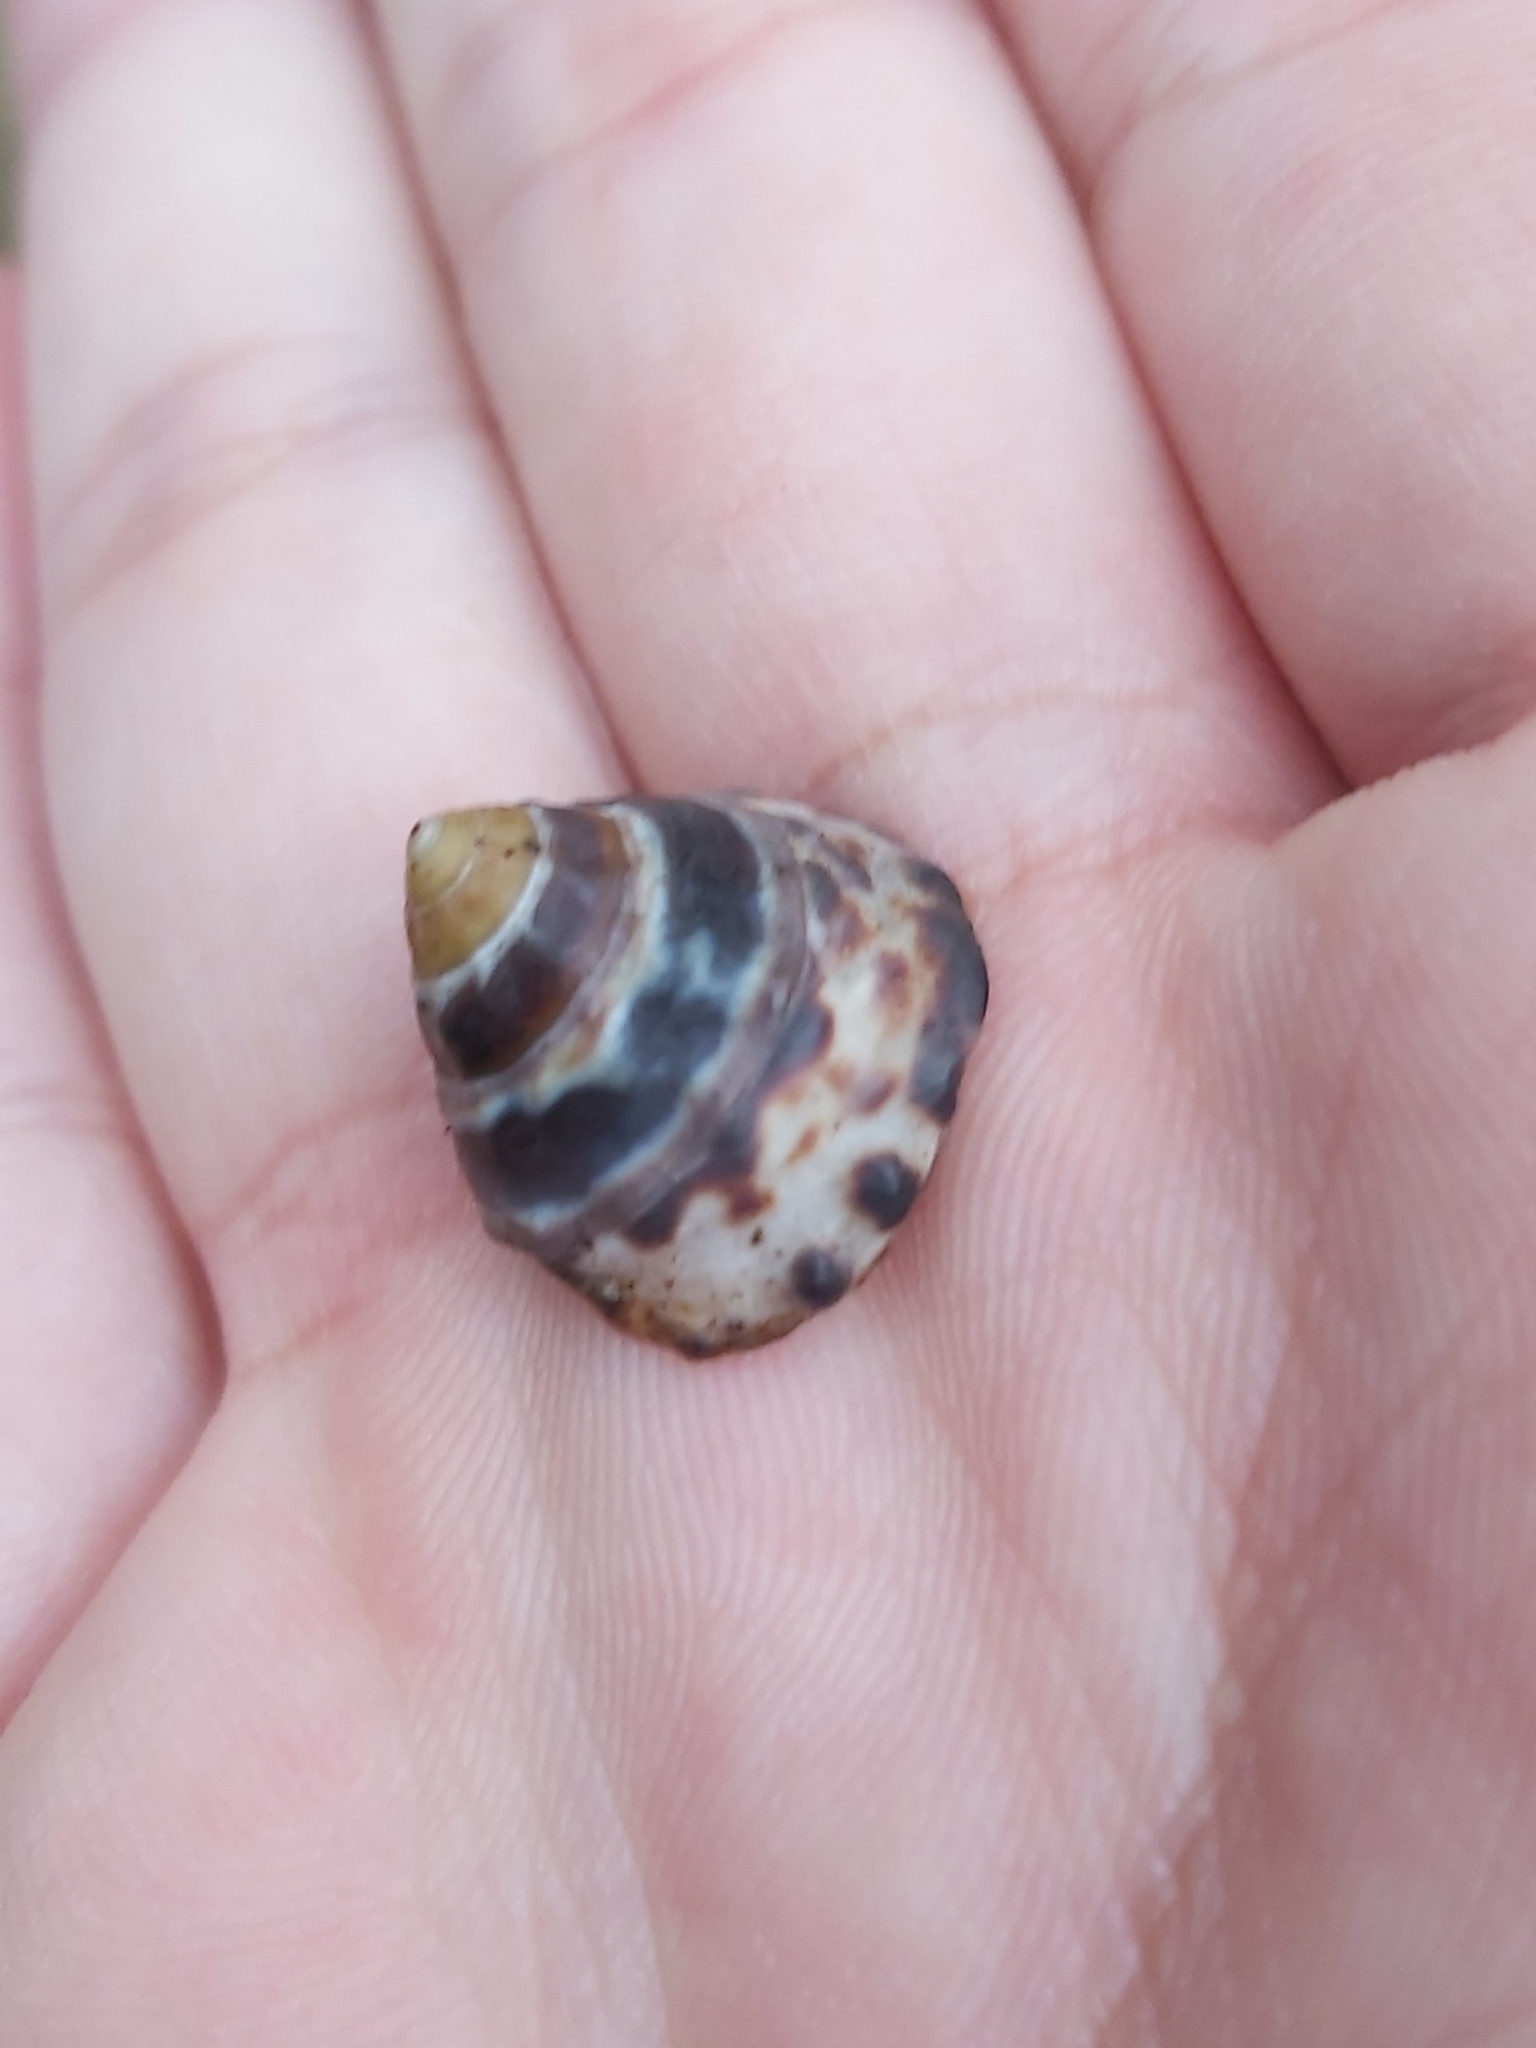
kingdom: Animalia
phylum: Mollusca
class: Gastropoda
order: Littorinimorpha
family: Littorinidae
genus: Bembicium
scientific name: Bembicium auratum
